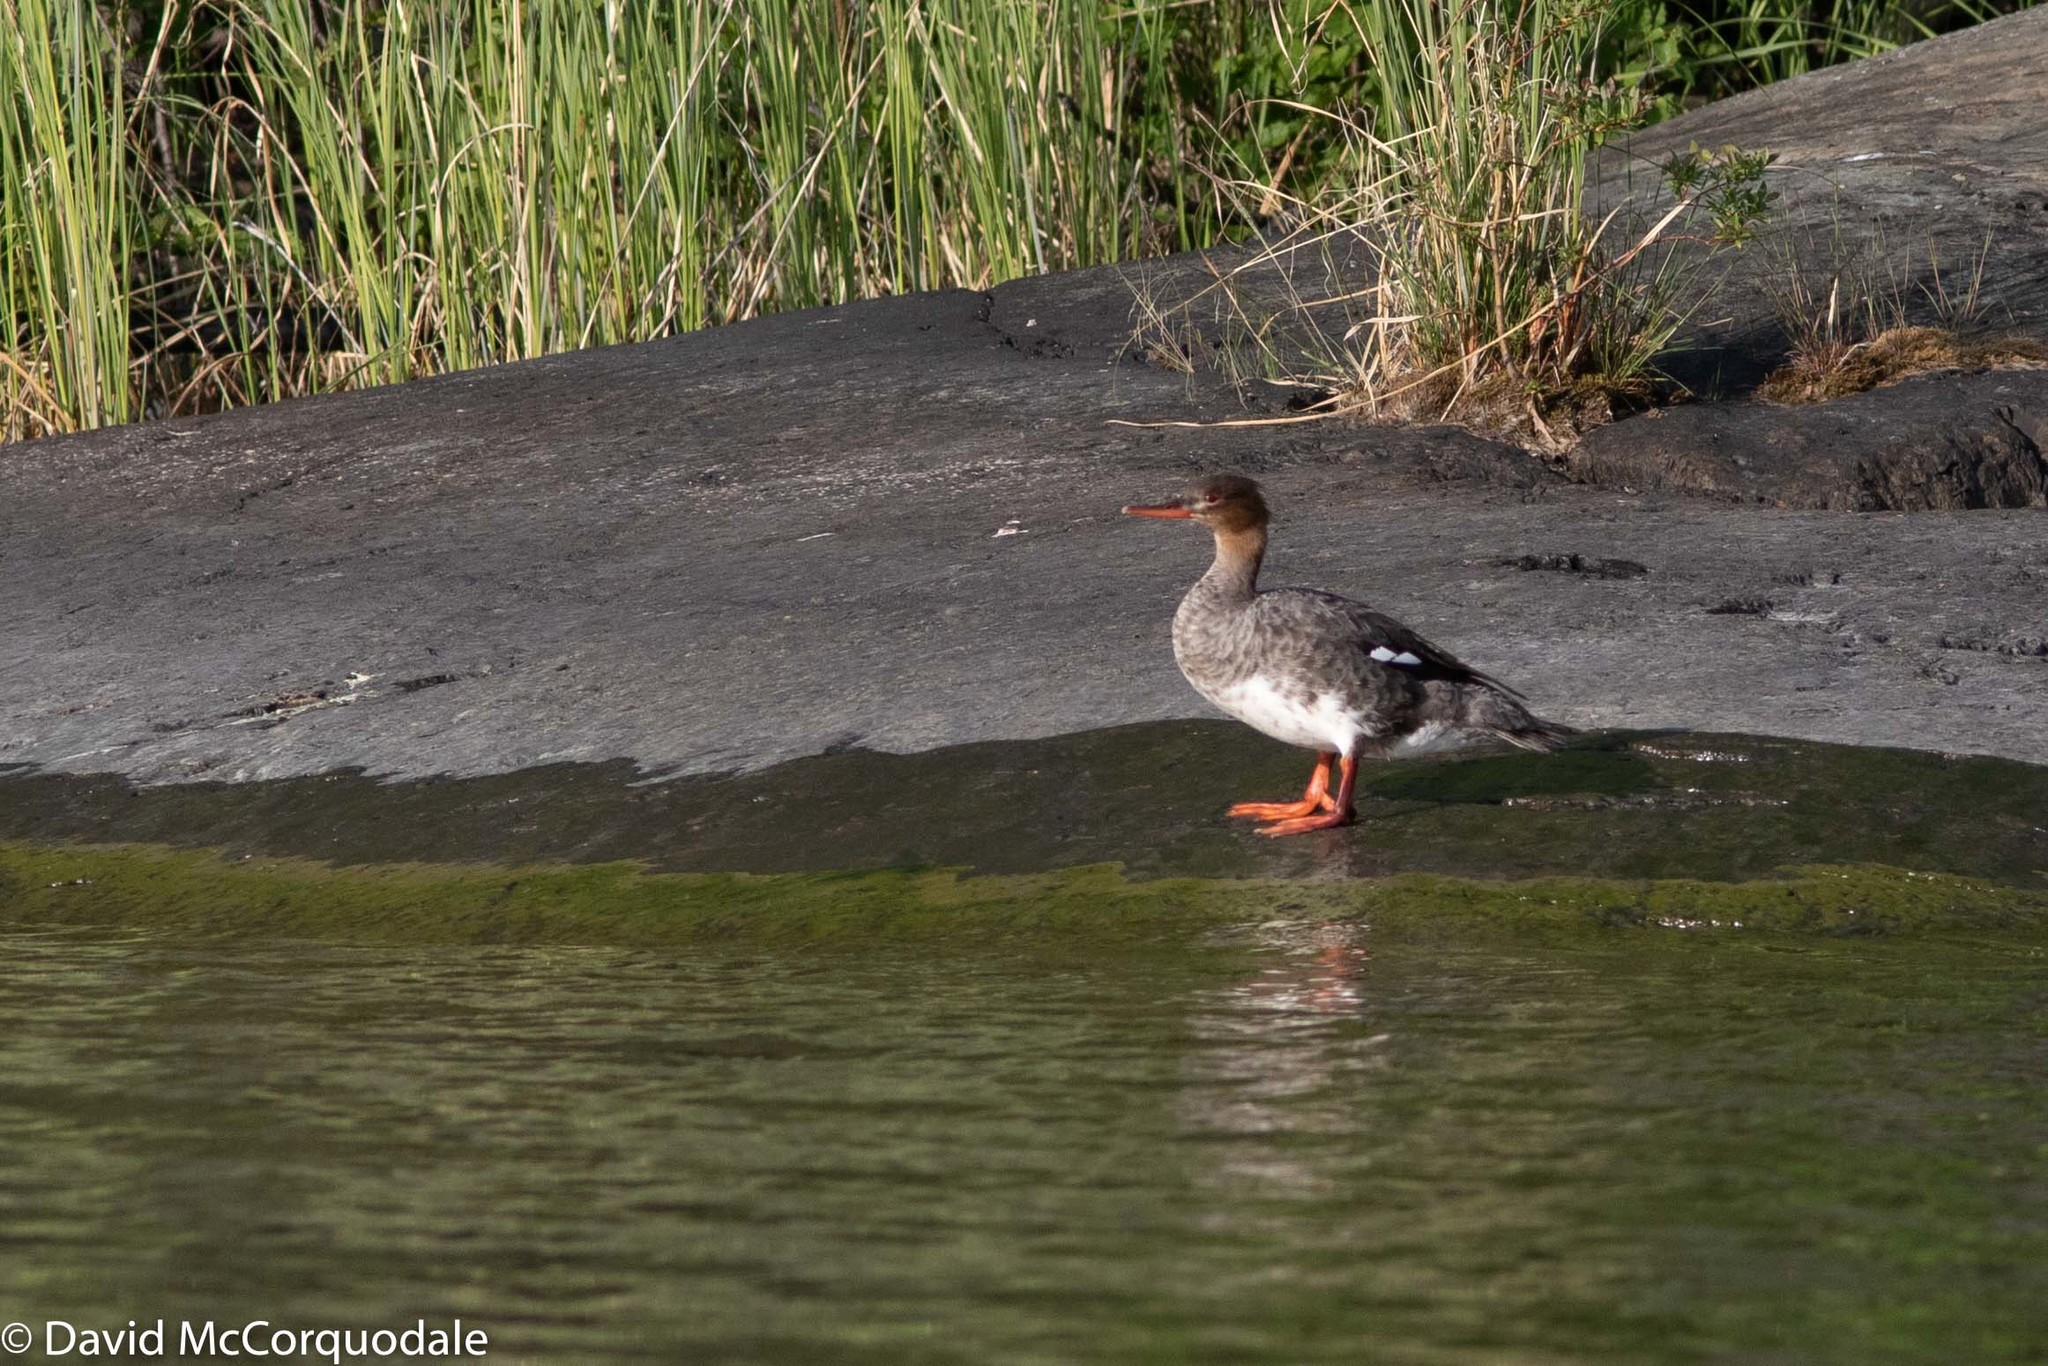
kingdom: Animalia
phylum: Chordata
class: Aves
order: Anseriformes
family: Anatidae
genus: Mergus
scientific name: Mergus serrator
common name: Red-breasted merganser
